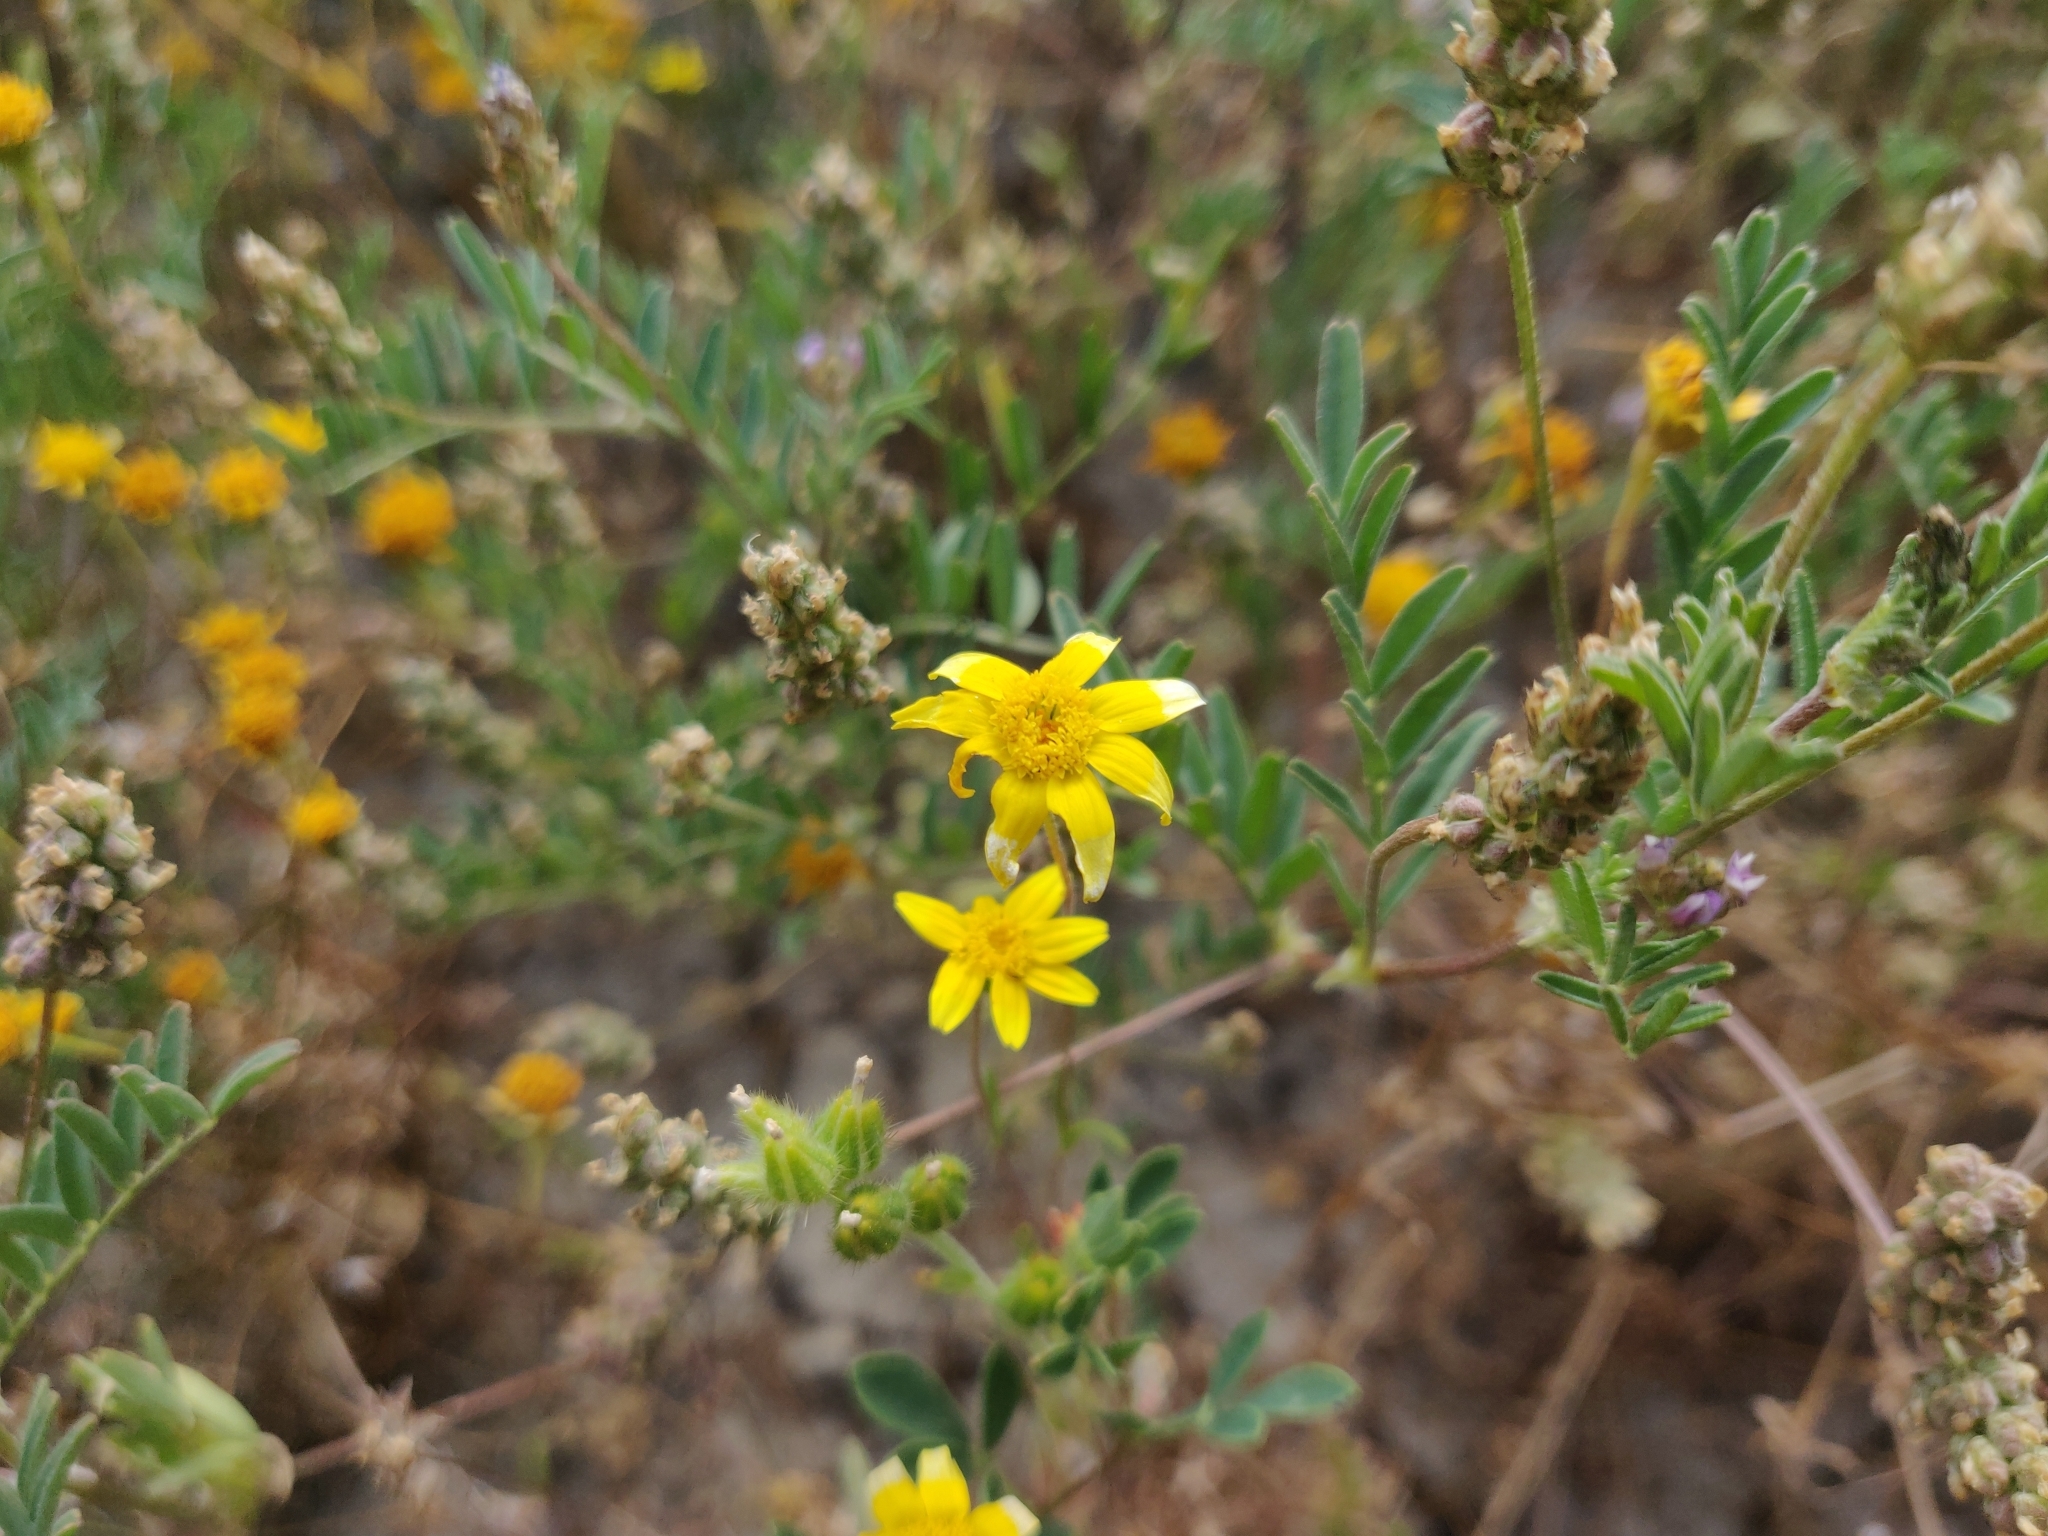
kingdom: Plantae
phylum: Tracheophyta
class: Magnoliopsida
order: Asterales
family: Asteraceae
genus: Lasthenia
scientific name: Lasthenia gracilis
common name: Common goldfields
